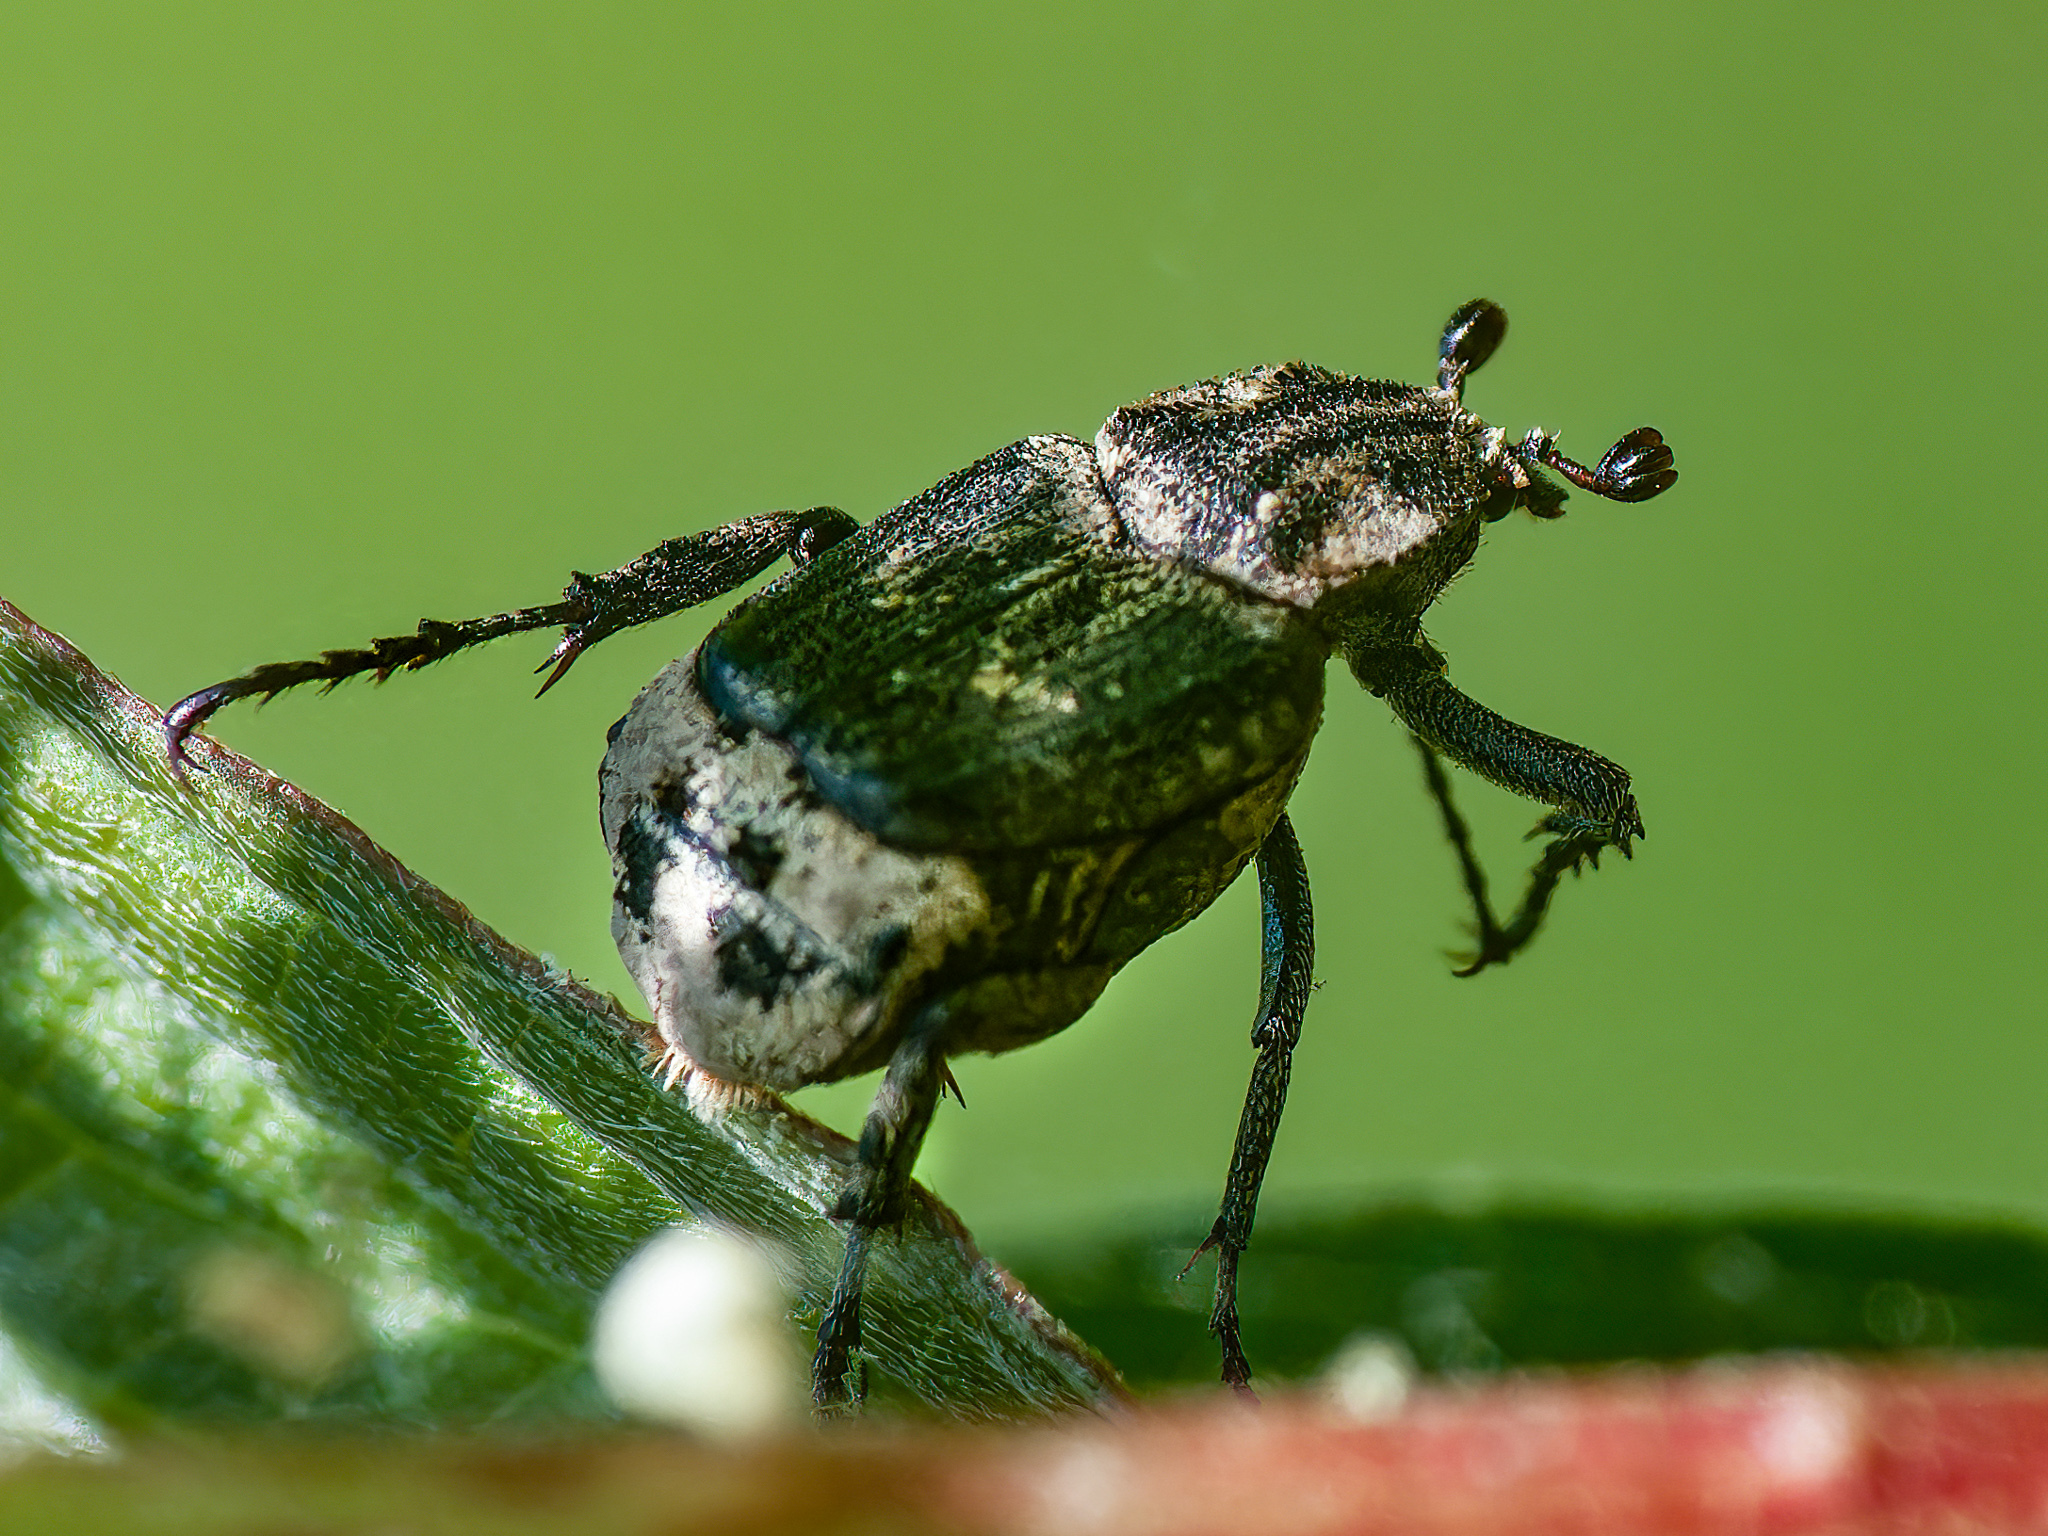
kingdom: Animalia
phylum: Arthropoda
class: Insecta
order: Coleoptera
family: Scarabaeidae
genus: Valgus
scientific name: Valgus hemipterus
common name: Bug flower chafer
